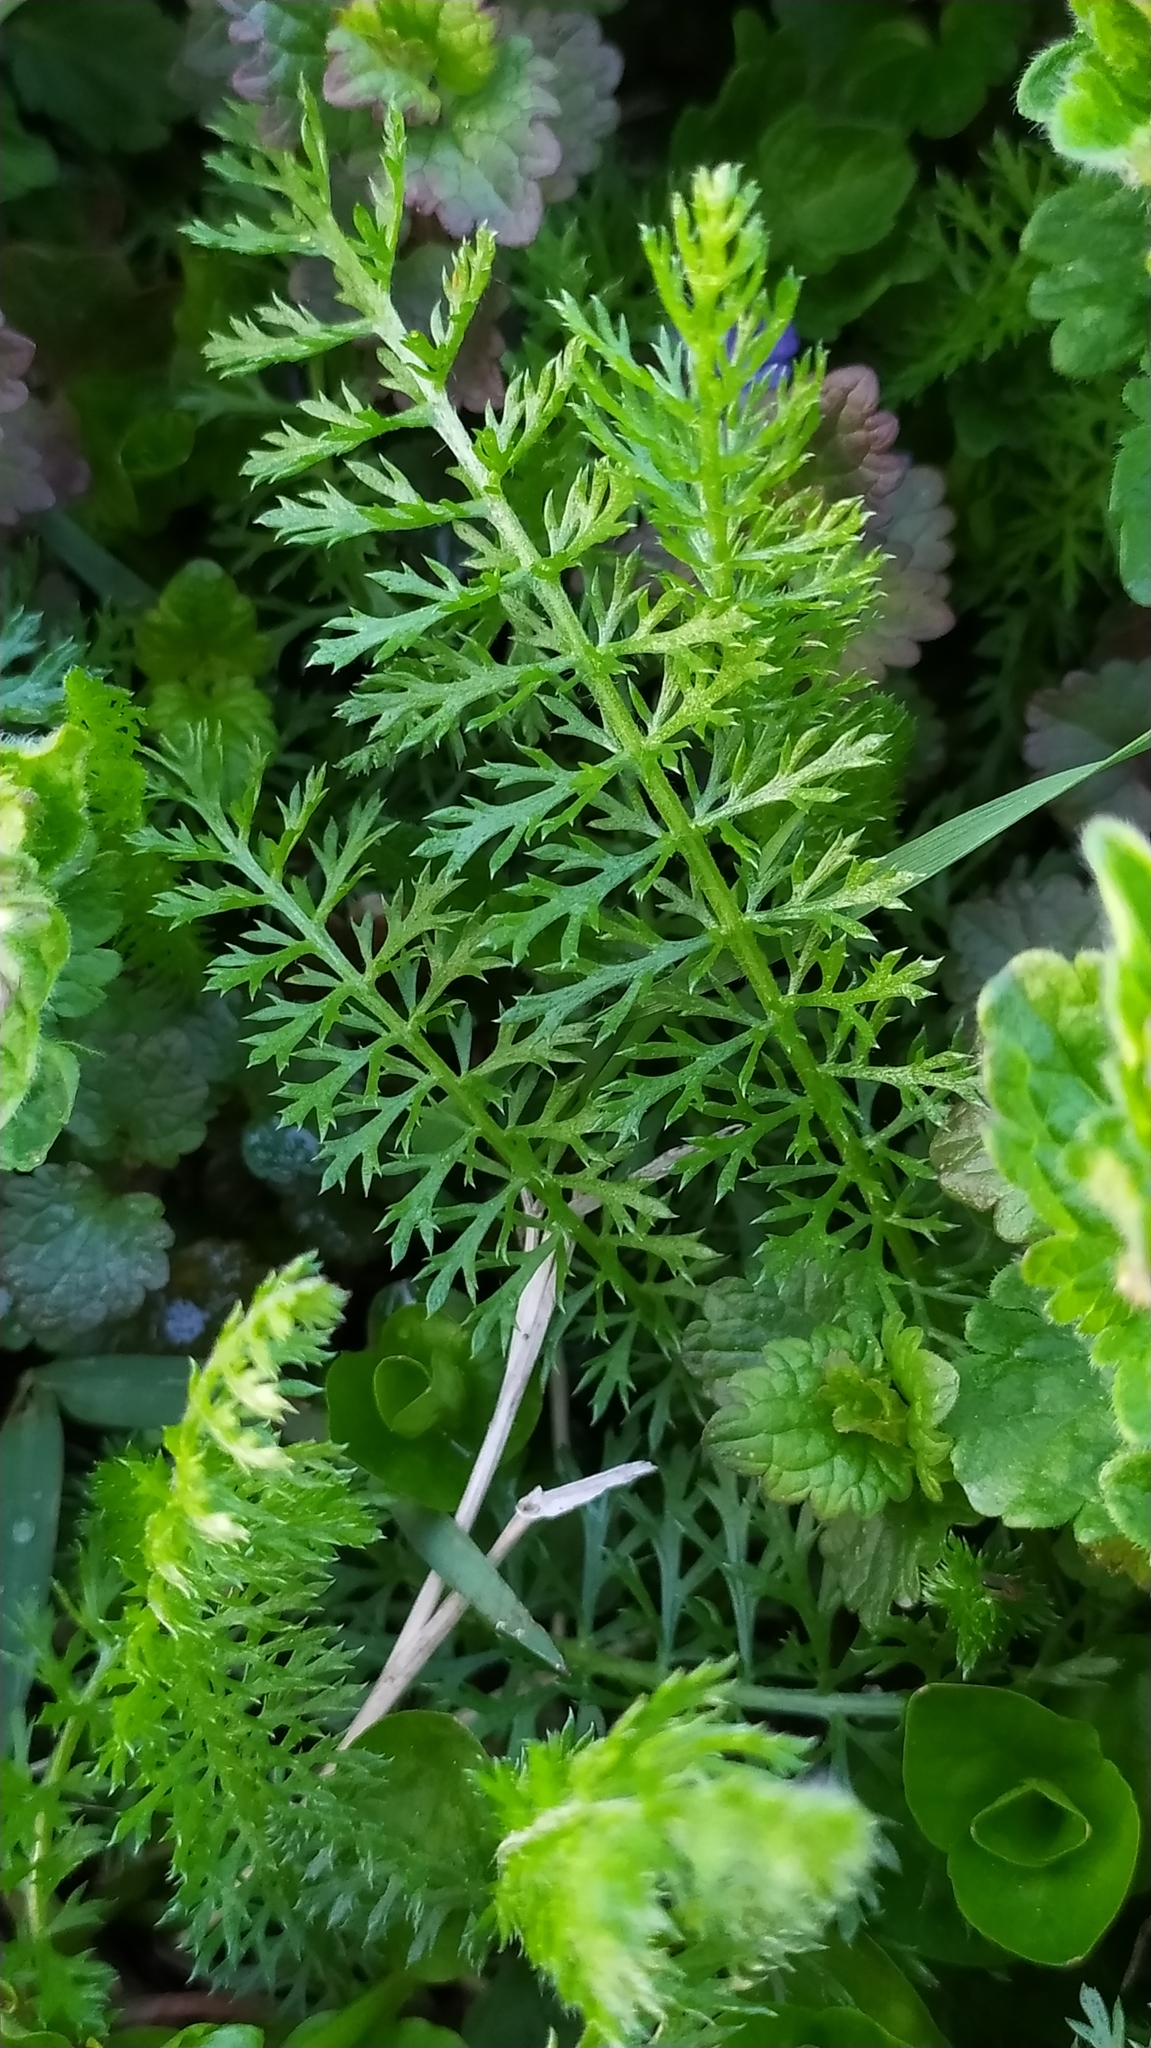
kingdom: Plantae
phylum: Tracheophyta
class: Magnoliopsida
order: Asterales
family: Asteraceae
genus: Achillea
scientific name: Achillea millefolium
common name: Yarrow
